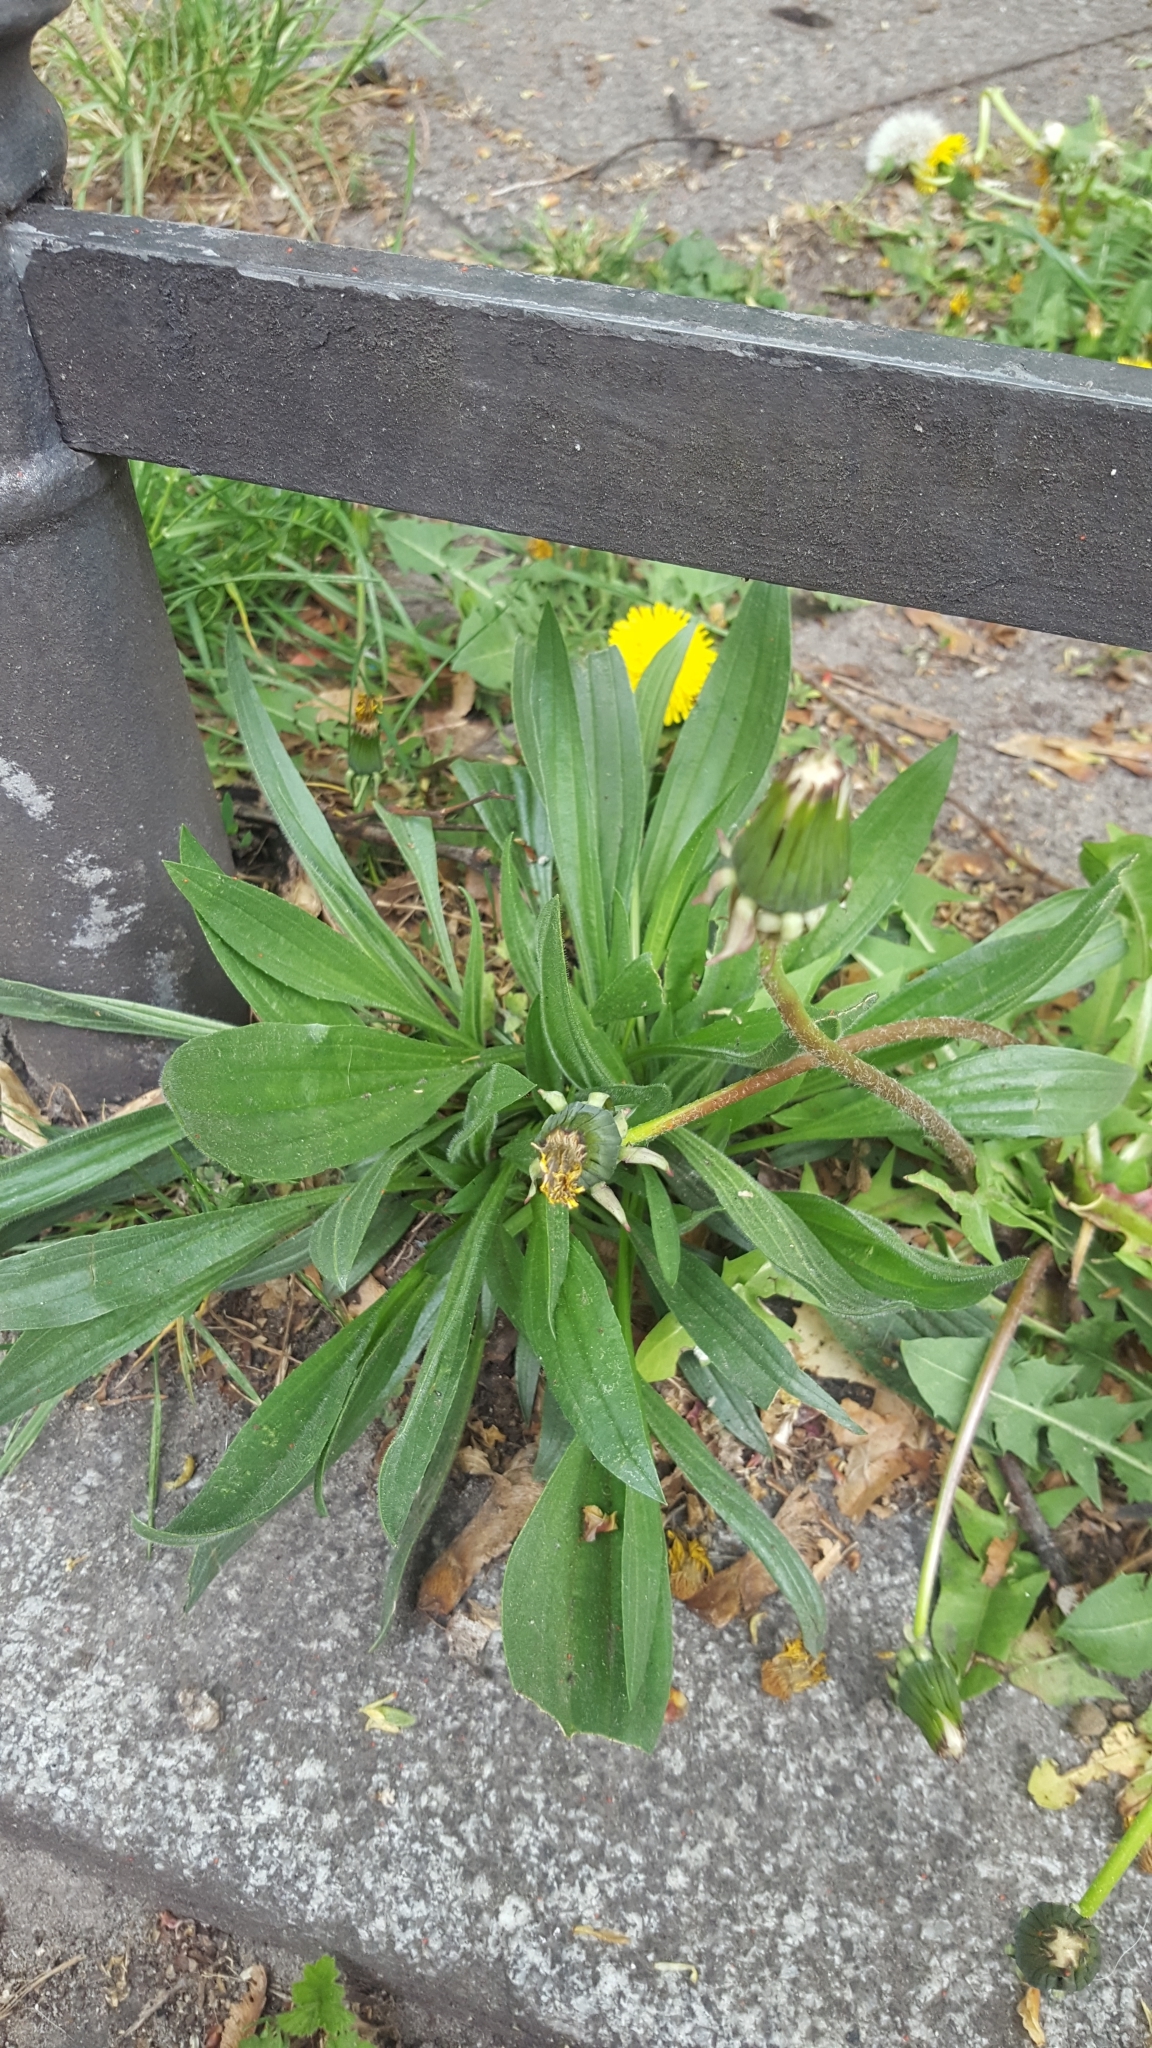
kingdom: Plantae
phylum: Tracheophyta
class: Magnoliopsida
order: Lamiales
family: Plantaginaceae
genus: Plantago
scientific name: Plantago lanceolata
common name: Ribwort plantain
